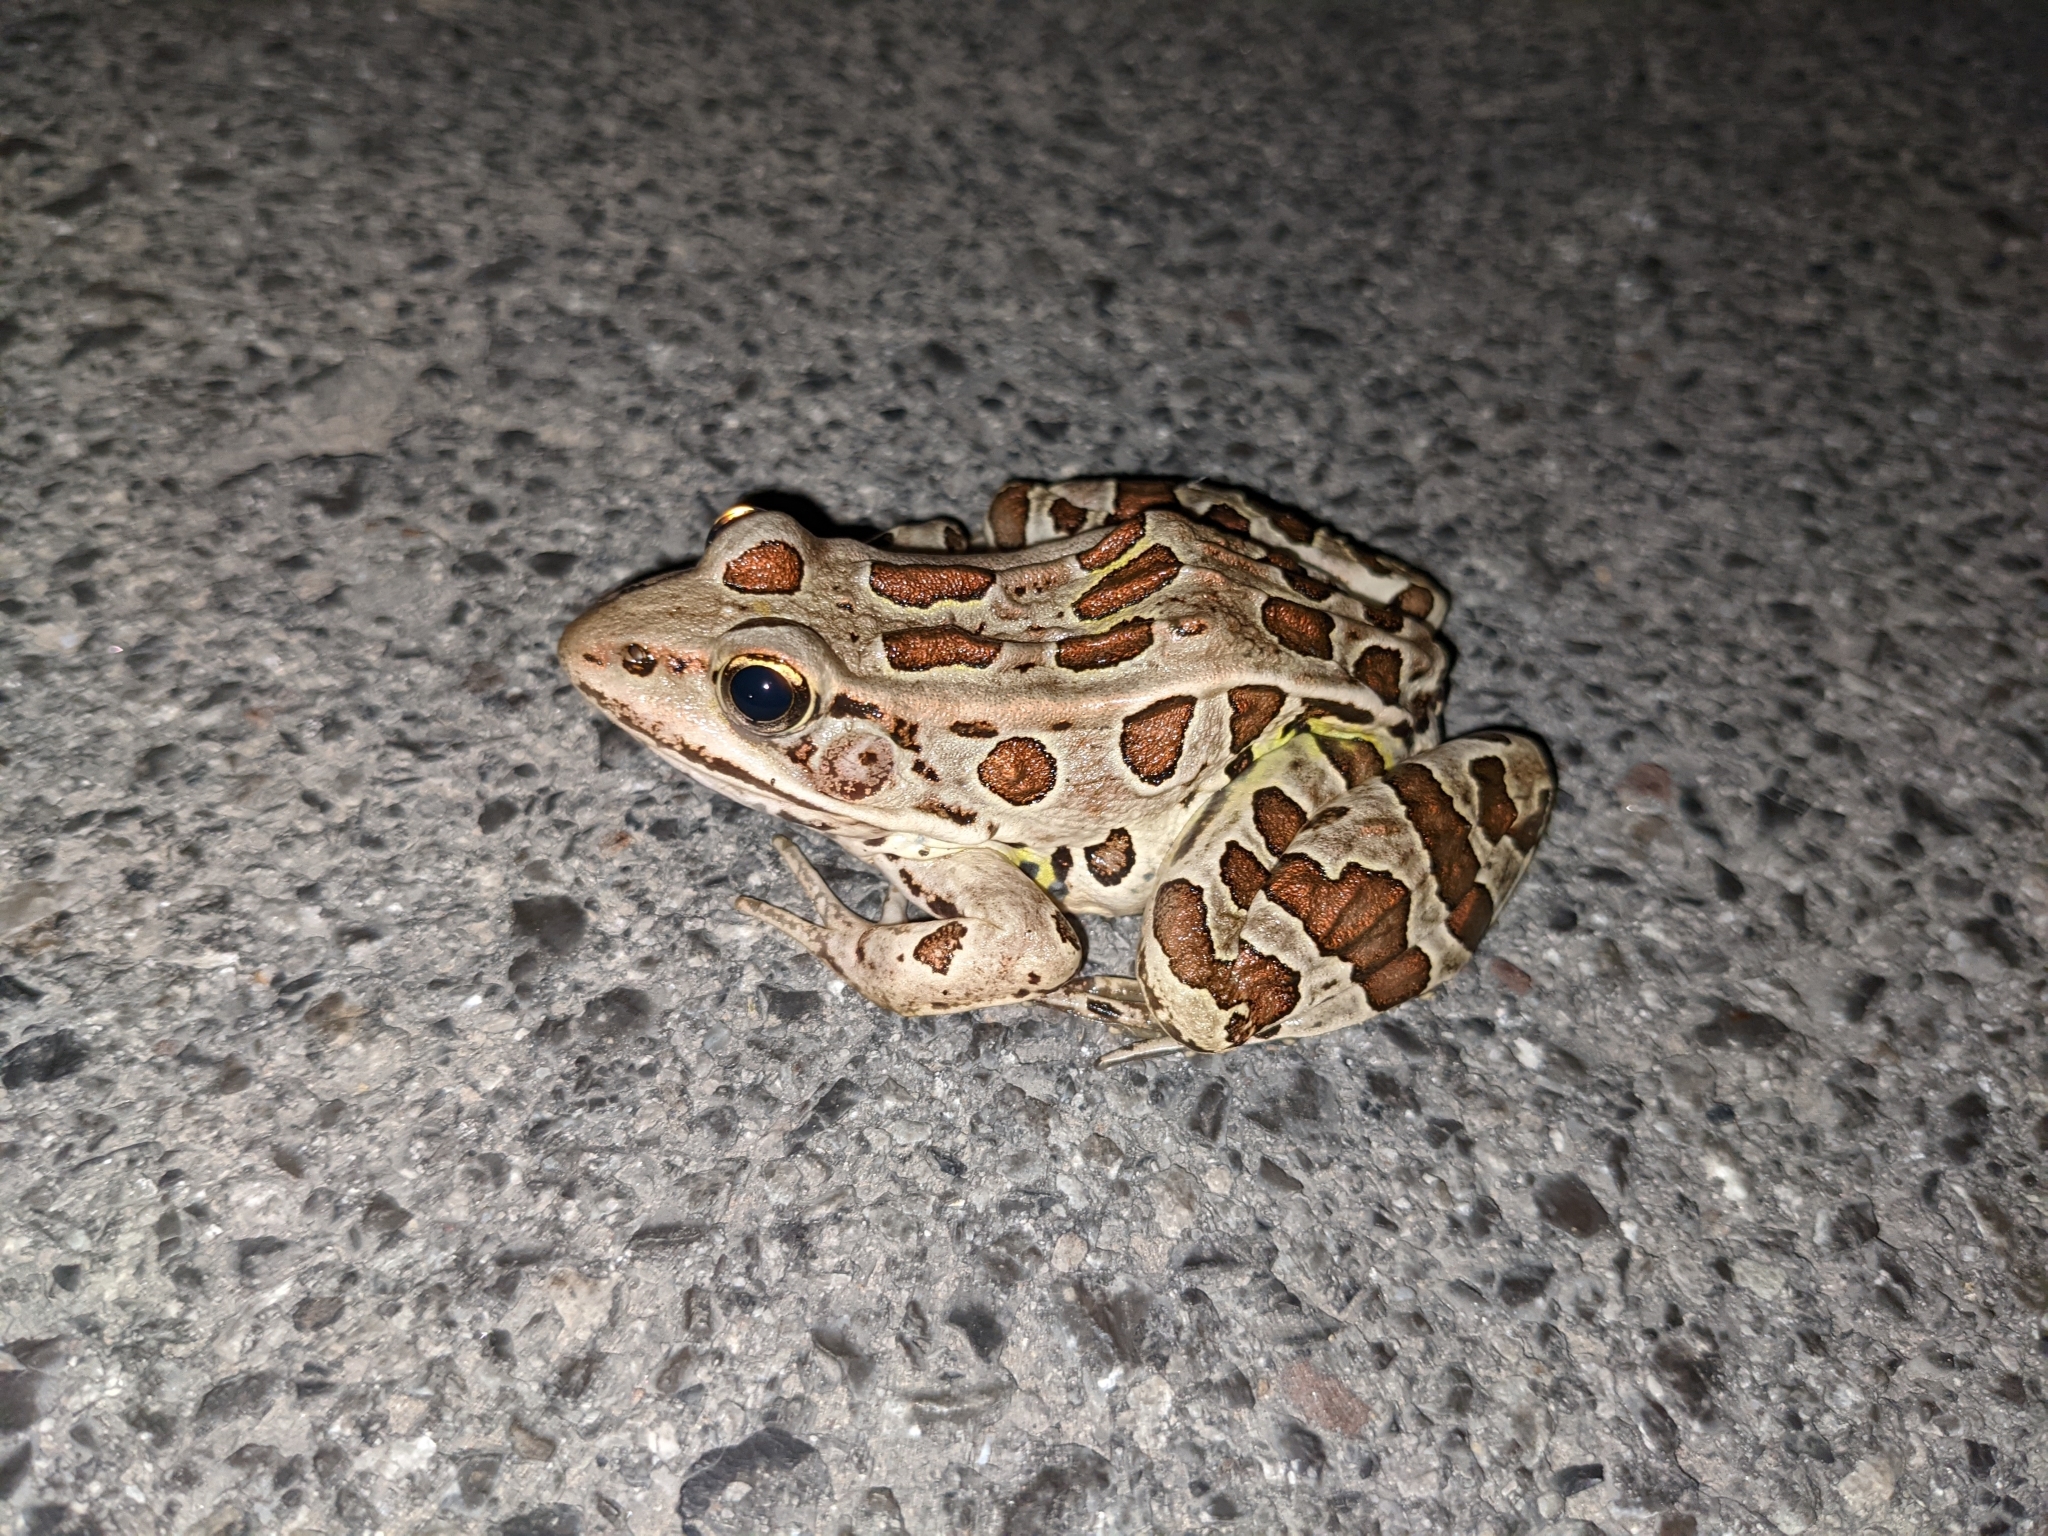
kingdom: Animalia
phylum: Chordata
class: Amphibia
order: Anura
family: Ranidae
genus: Lithobates
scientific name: Lithobates palustris
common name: Pickerel frog
